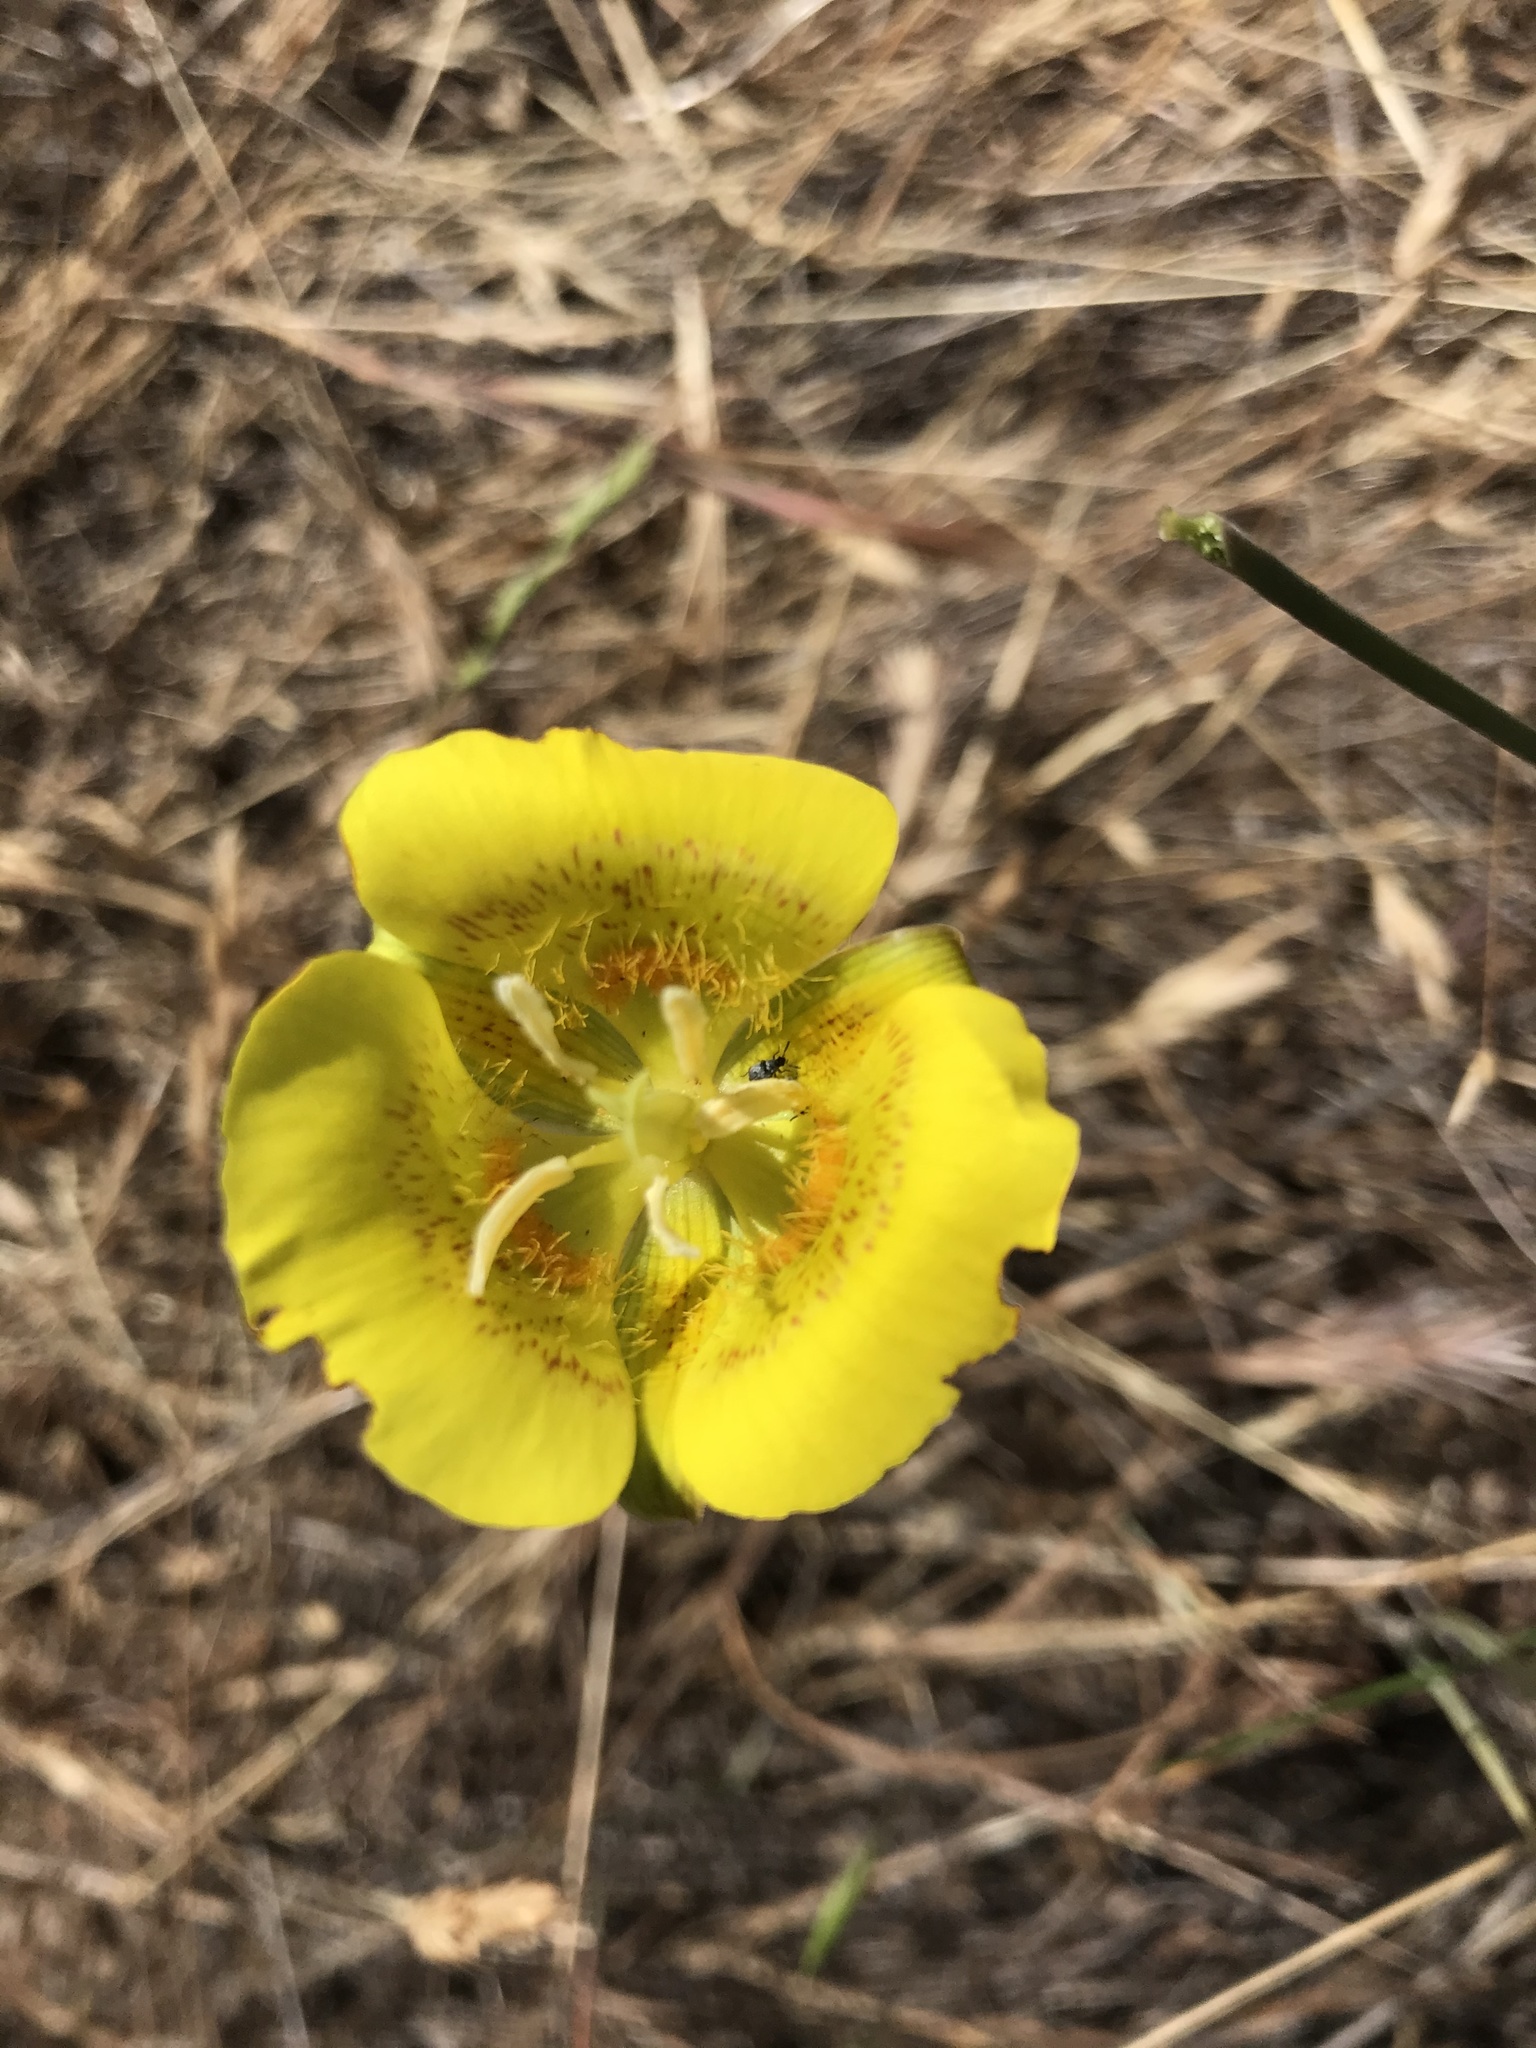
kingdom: Plantae
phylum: Tracheophyta
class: Liliopsida
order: Liliales
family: Liliaceae
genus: Calochortus
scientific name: Calochortus luteus
